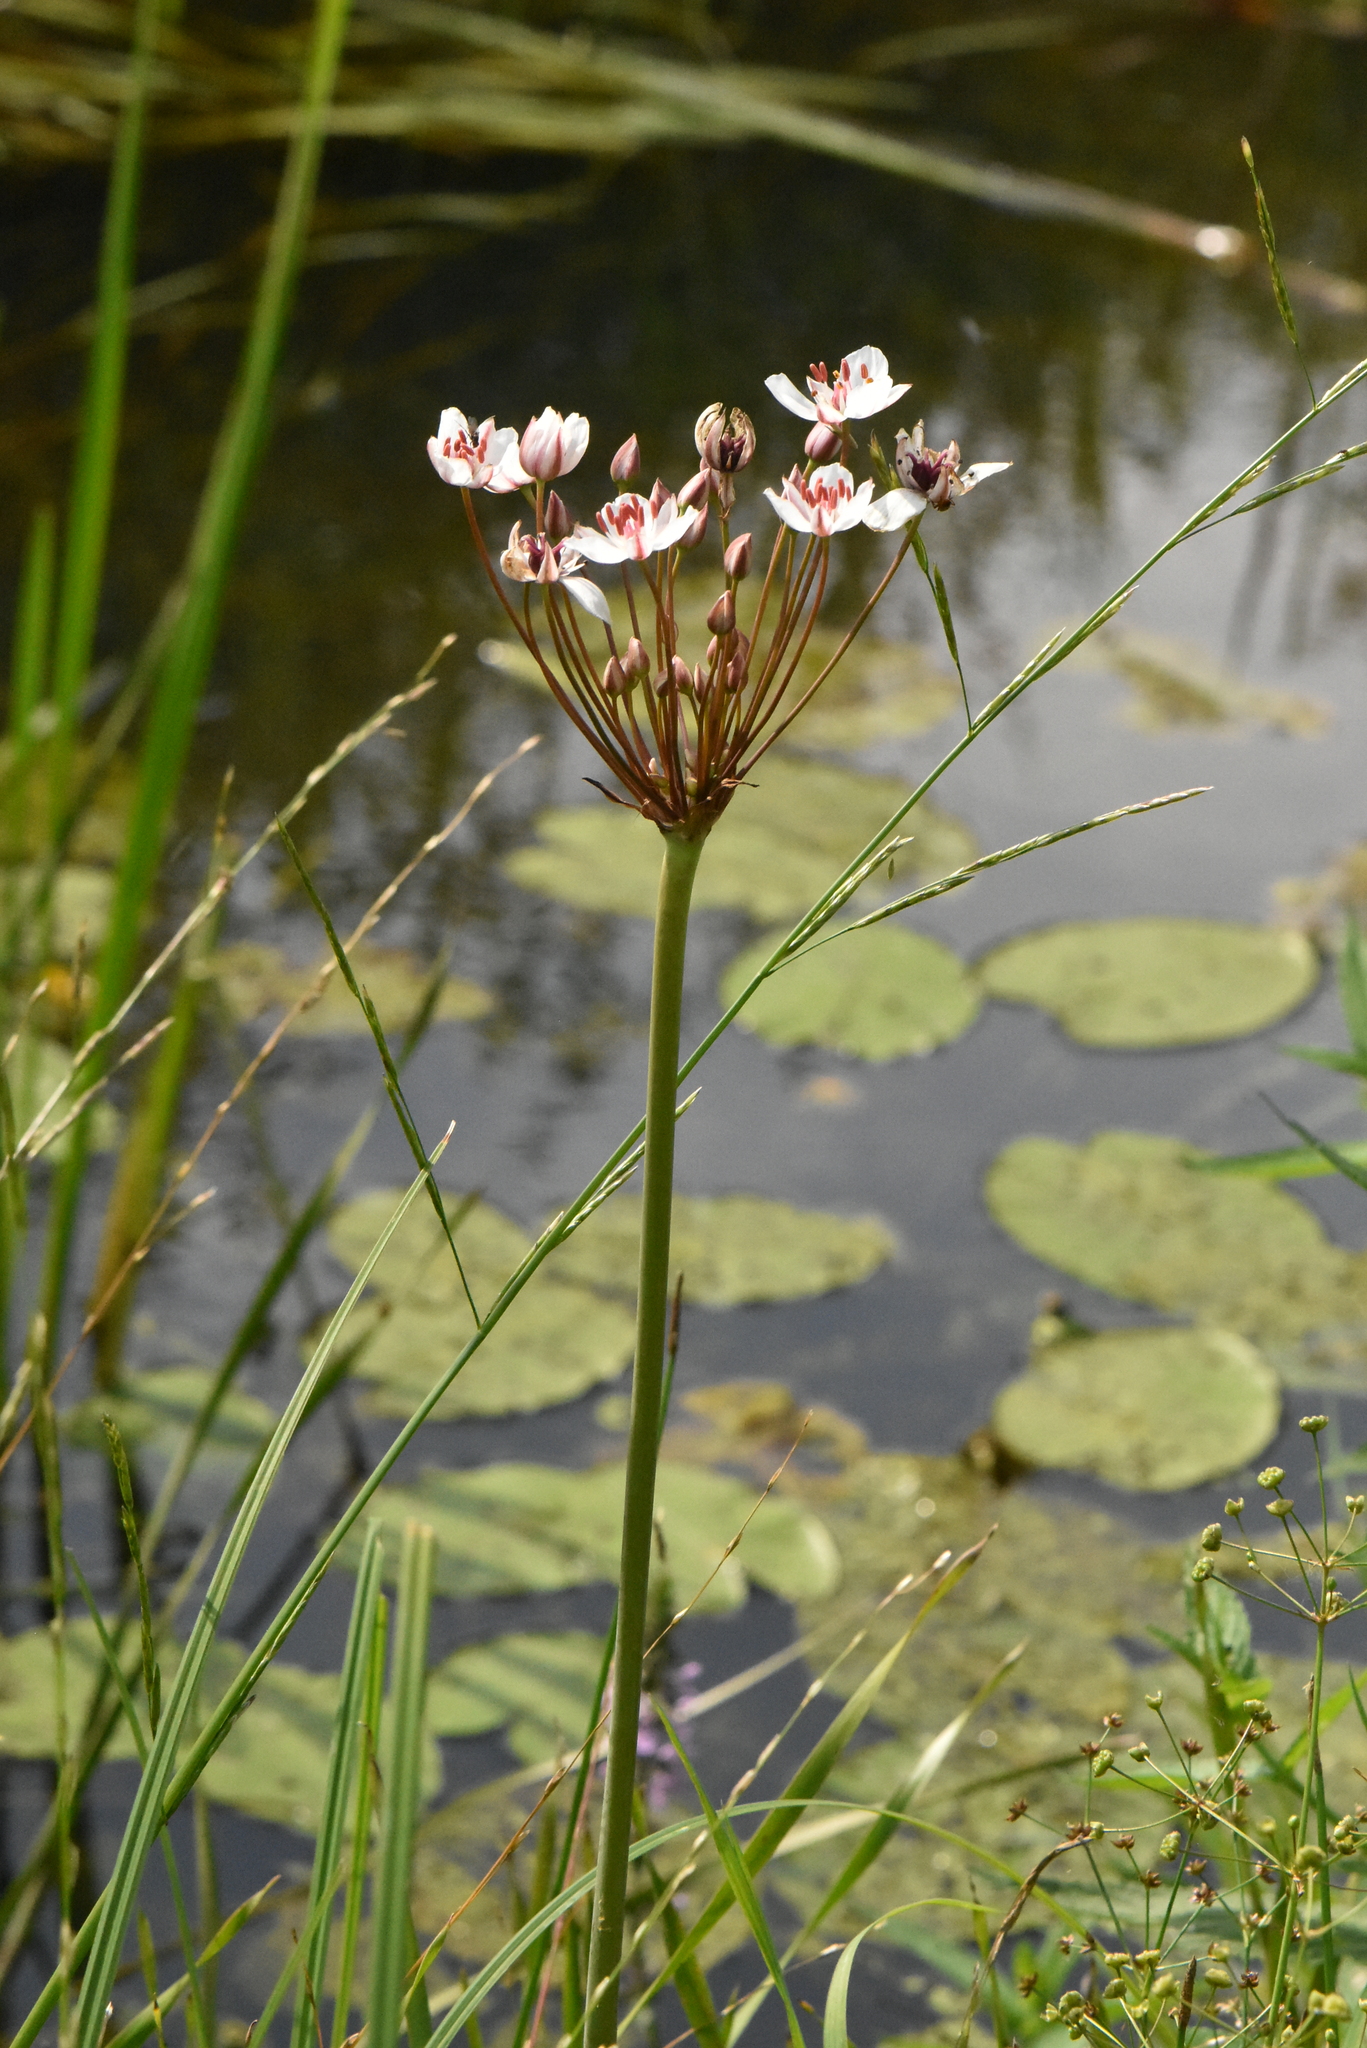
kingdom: Plantae
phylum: Tracheophyta
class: Liliopsida
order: Alismatales
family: Butomaceae
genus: Butomus
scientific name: Butomus umbellatus
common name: Flowering-rush
